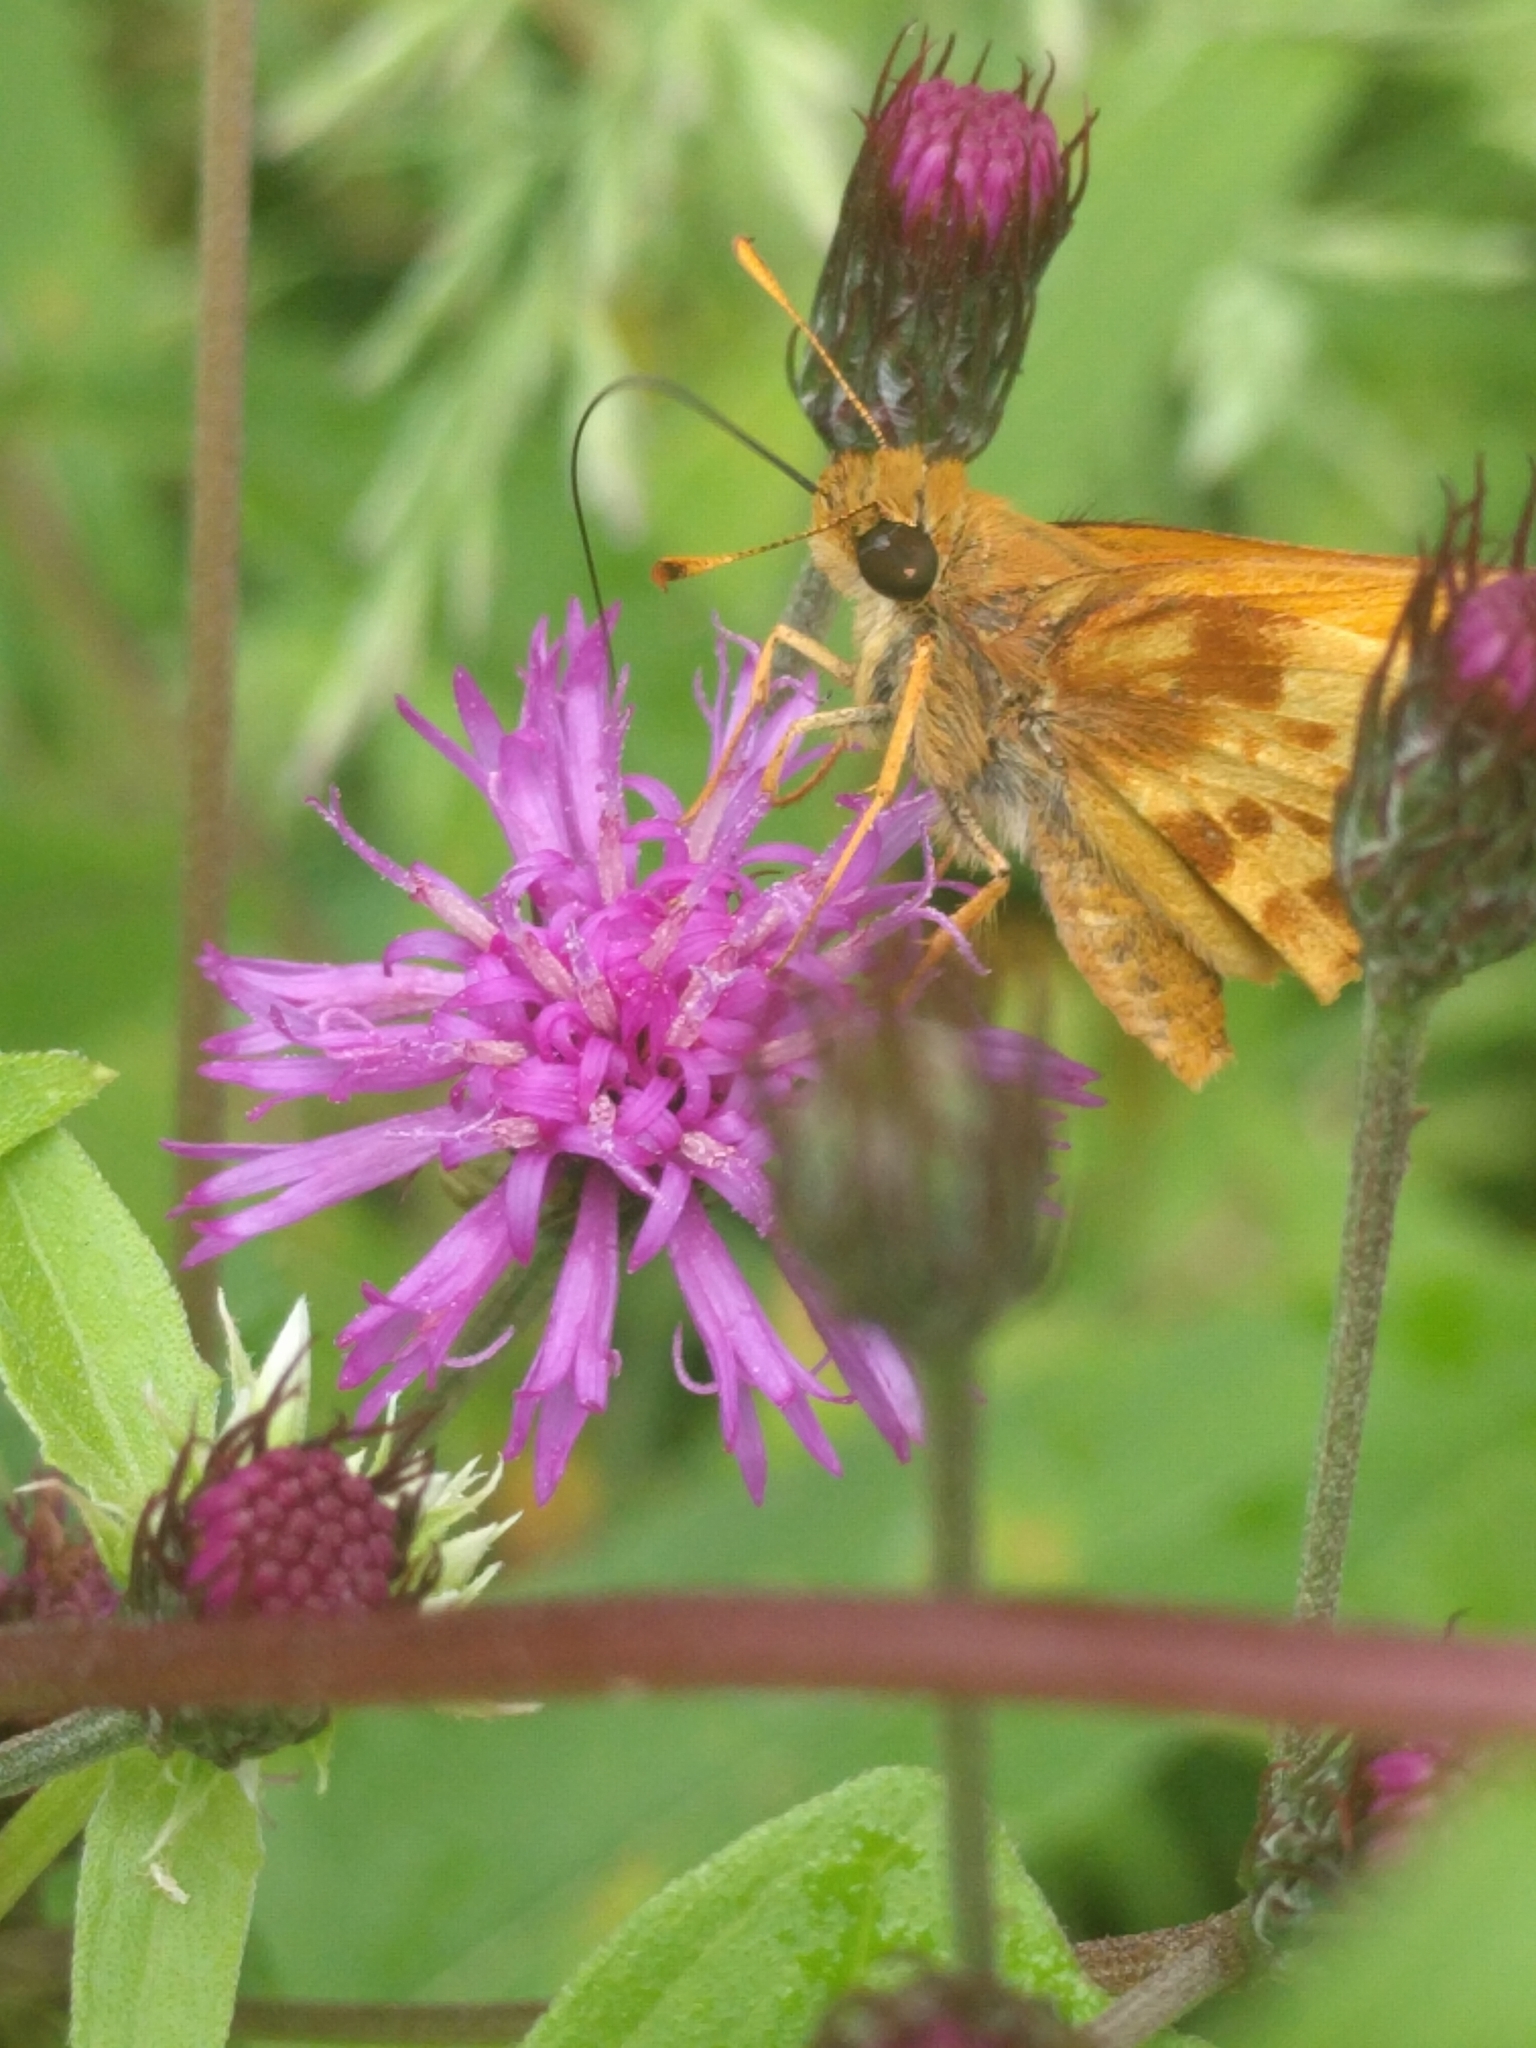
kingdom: Animalia
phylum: Arthropoda
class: Insecta
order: Lepidoptera
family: Hesperiidae
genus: Lon
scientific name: Lon zabulon
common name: Zabulon skipper
